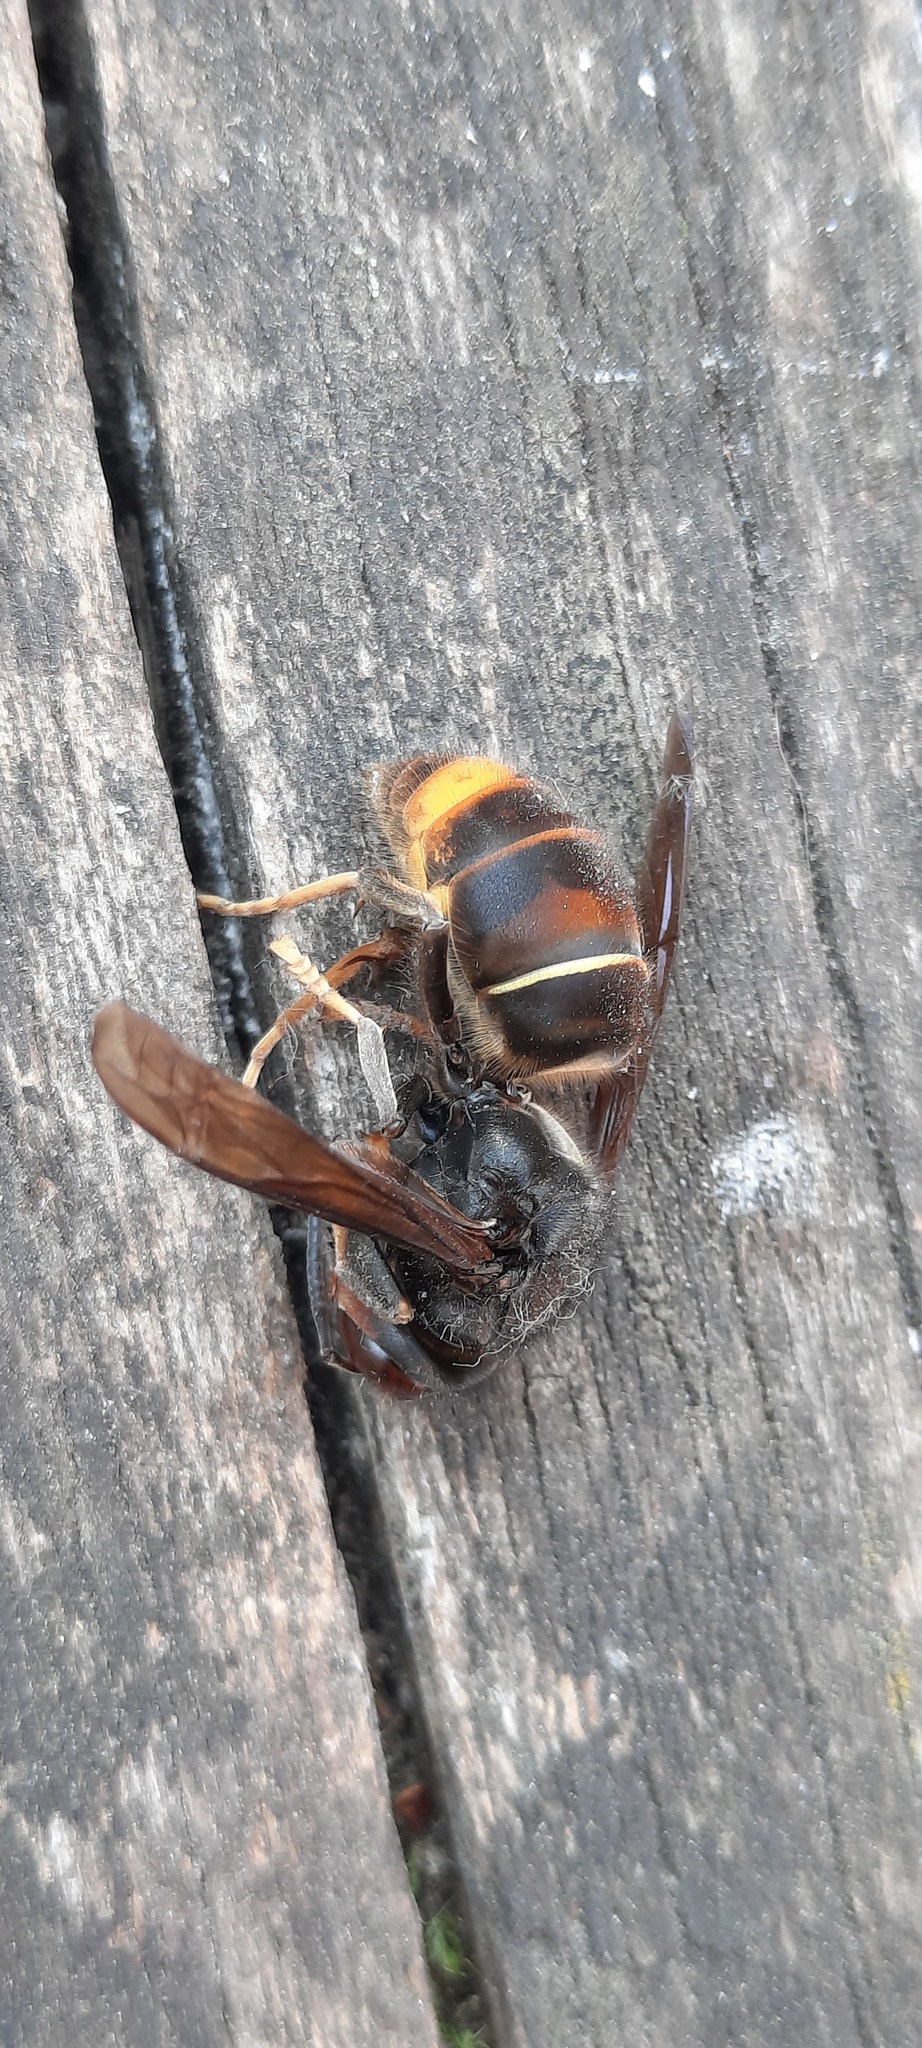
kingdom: Animalia
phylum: Arthropoda
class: Insecta
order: Hymenoptera
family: Vespidae
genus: Vespa
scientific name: Vespa velutina
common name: Asian hornet
